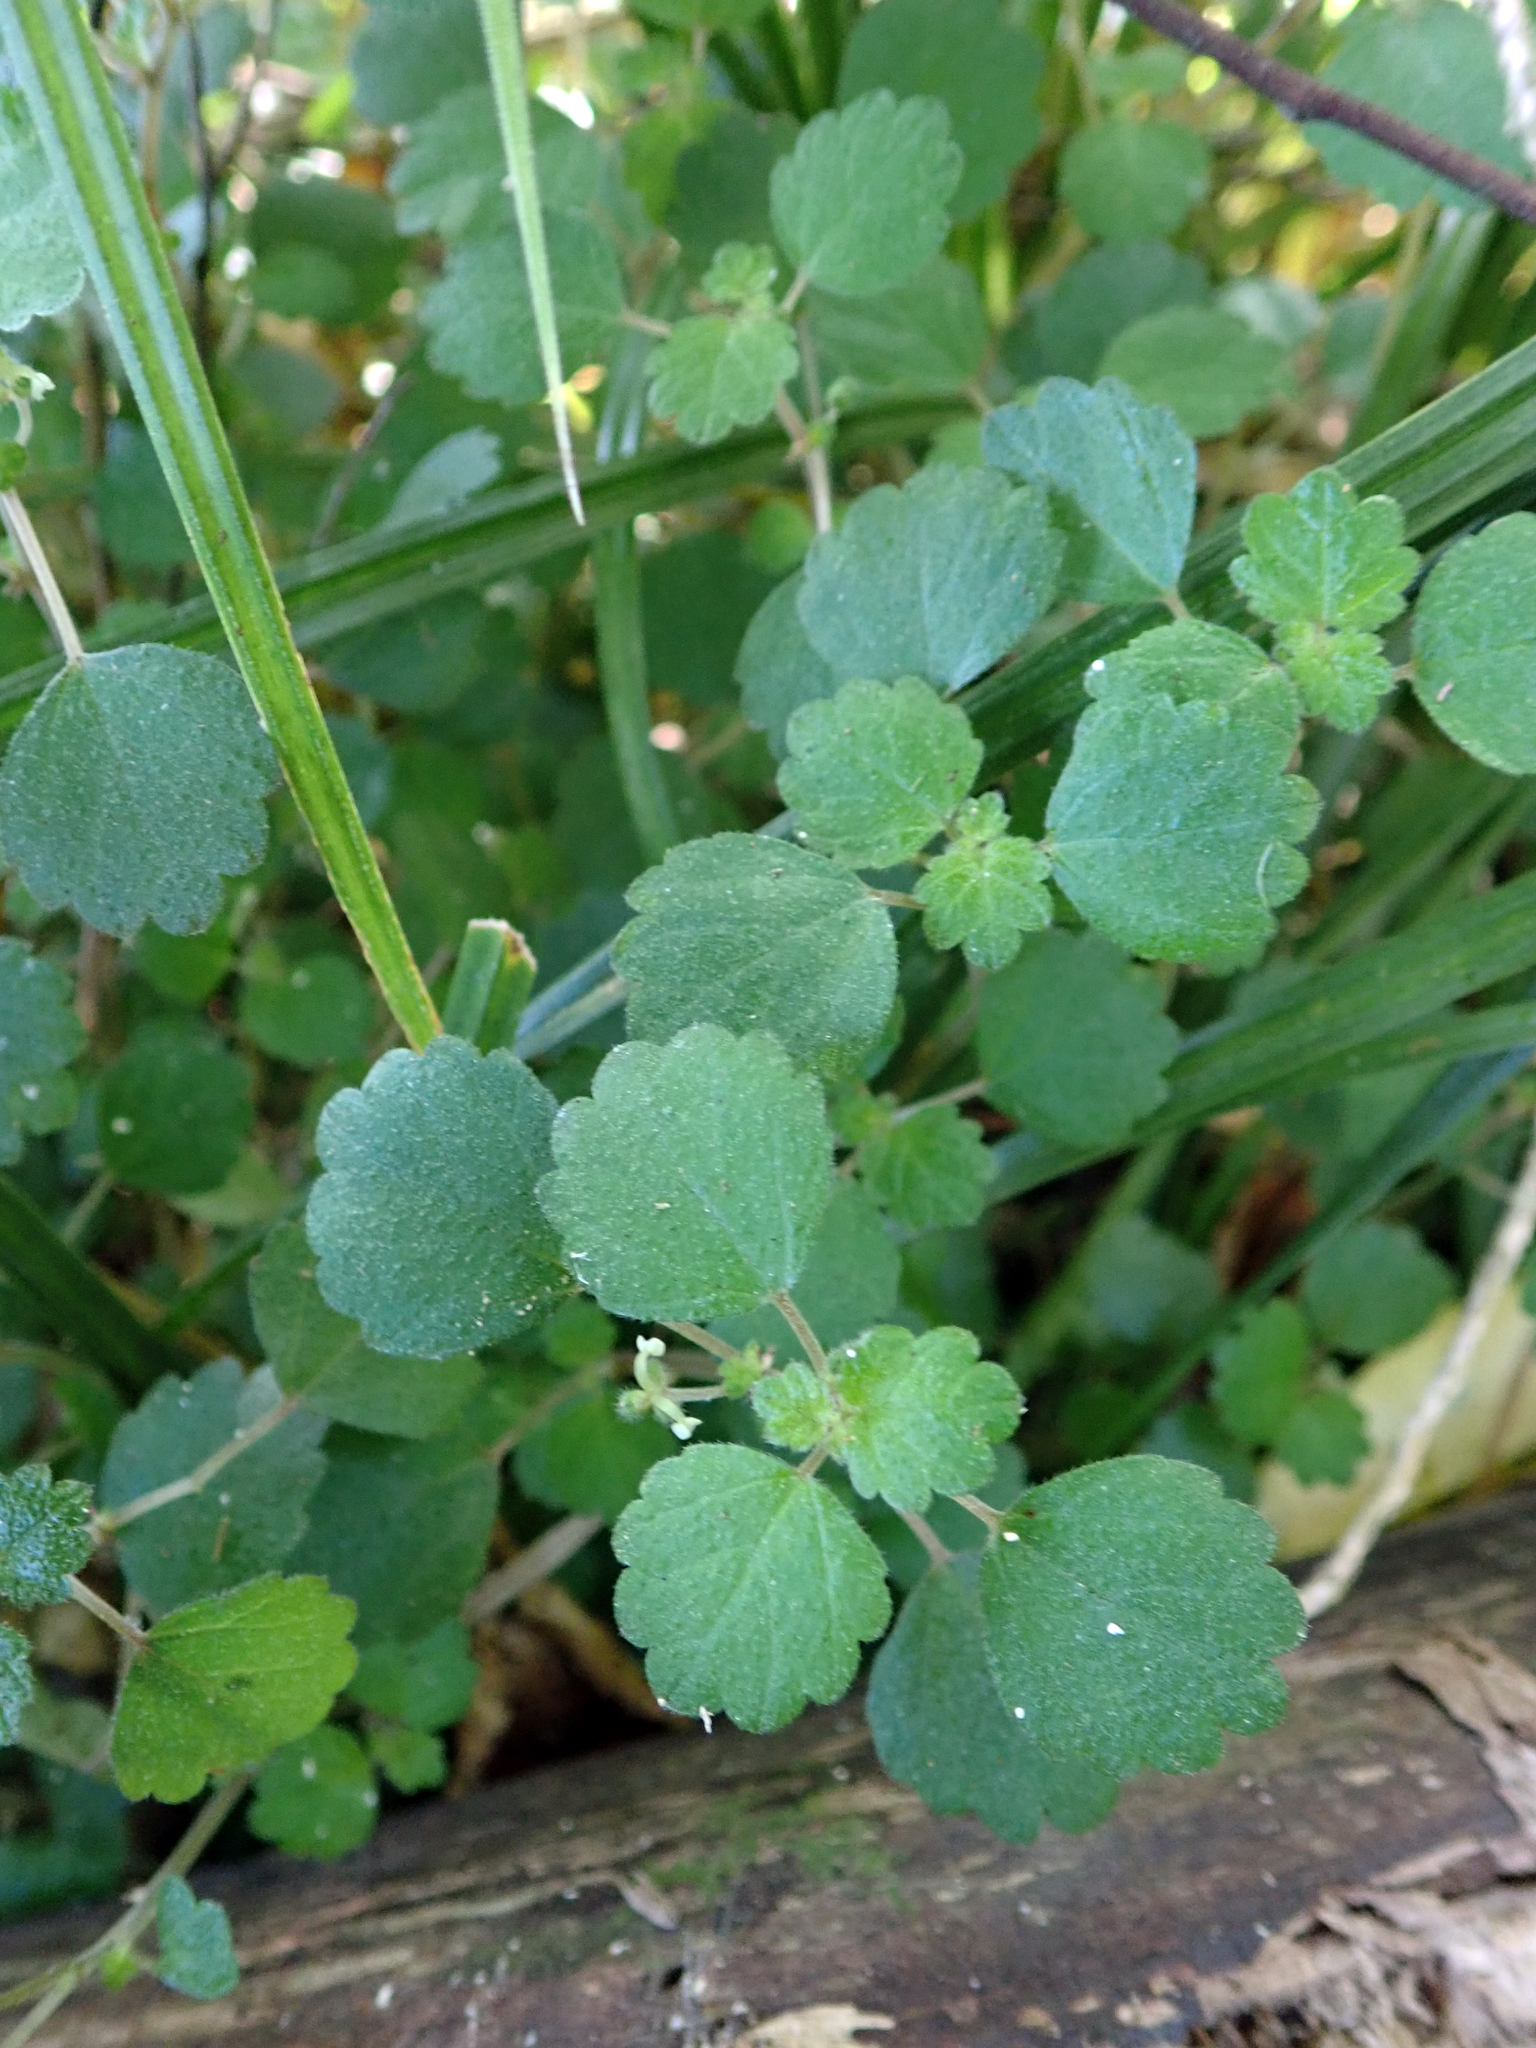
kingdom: Plantae
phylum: Tracheophyta
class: Magnoliopsida
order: Rosales
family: Urticaceae
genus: Australina
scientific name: Australina pusilla
